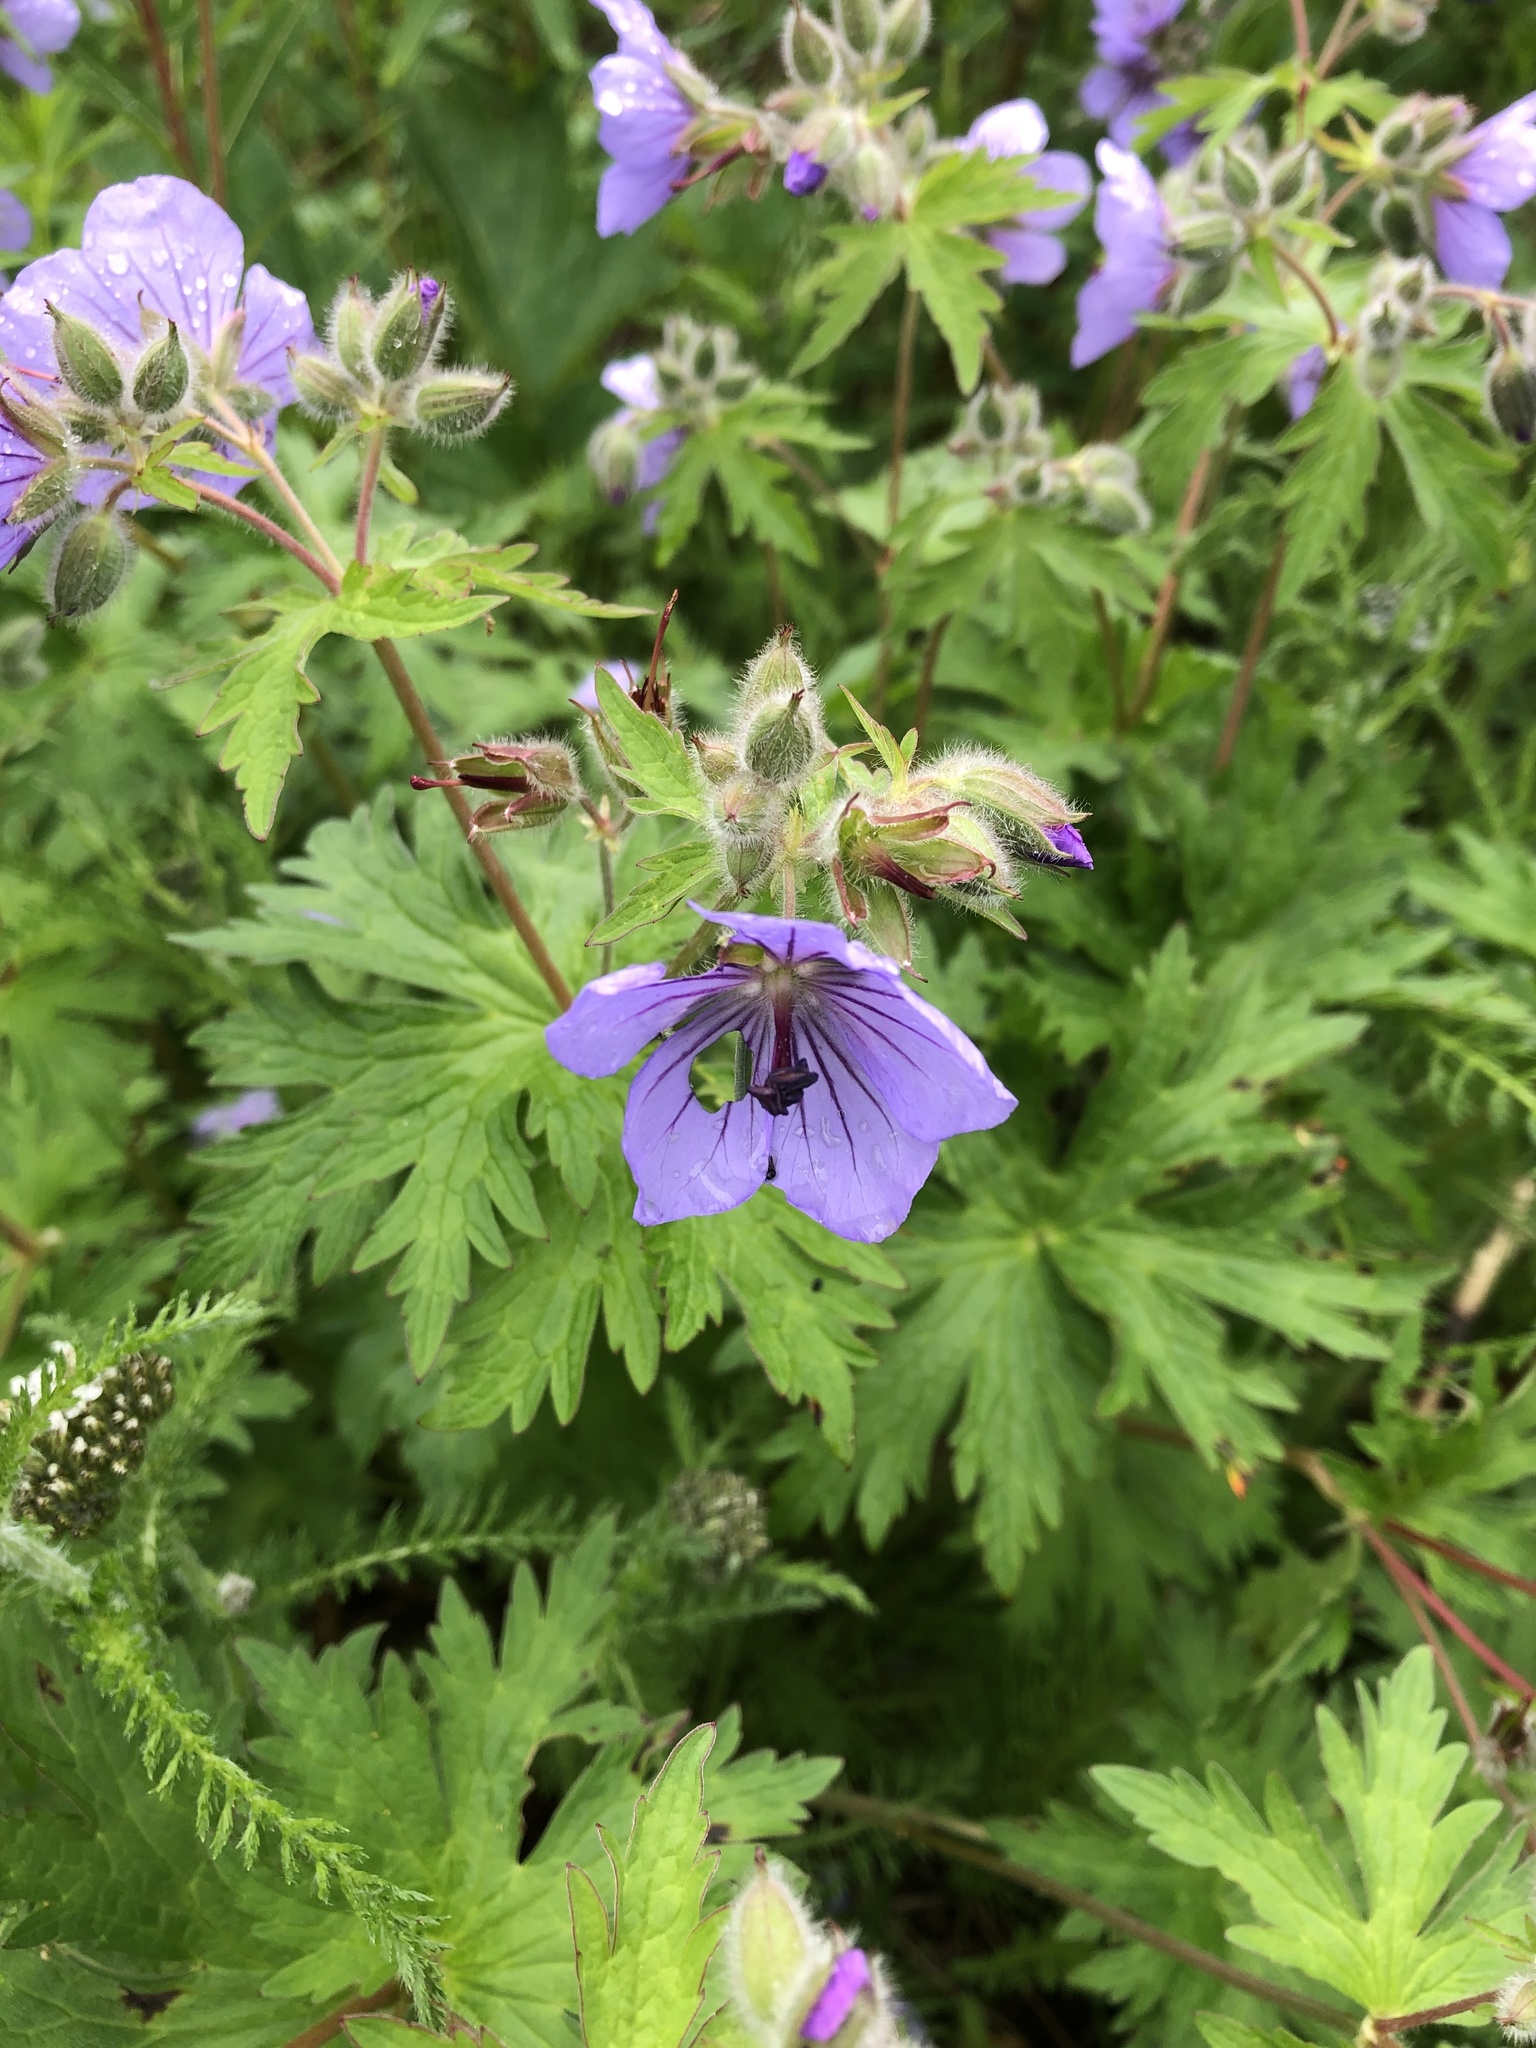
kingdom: Plantae
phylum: Tracheophyta
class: Magnoliopsida
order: Geraniales
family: Geraniaceae
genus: Geranium
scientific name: Geranium erianthum
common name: Northern crane's-bill
